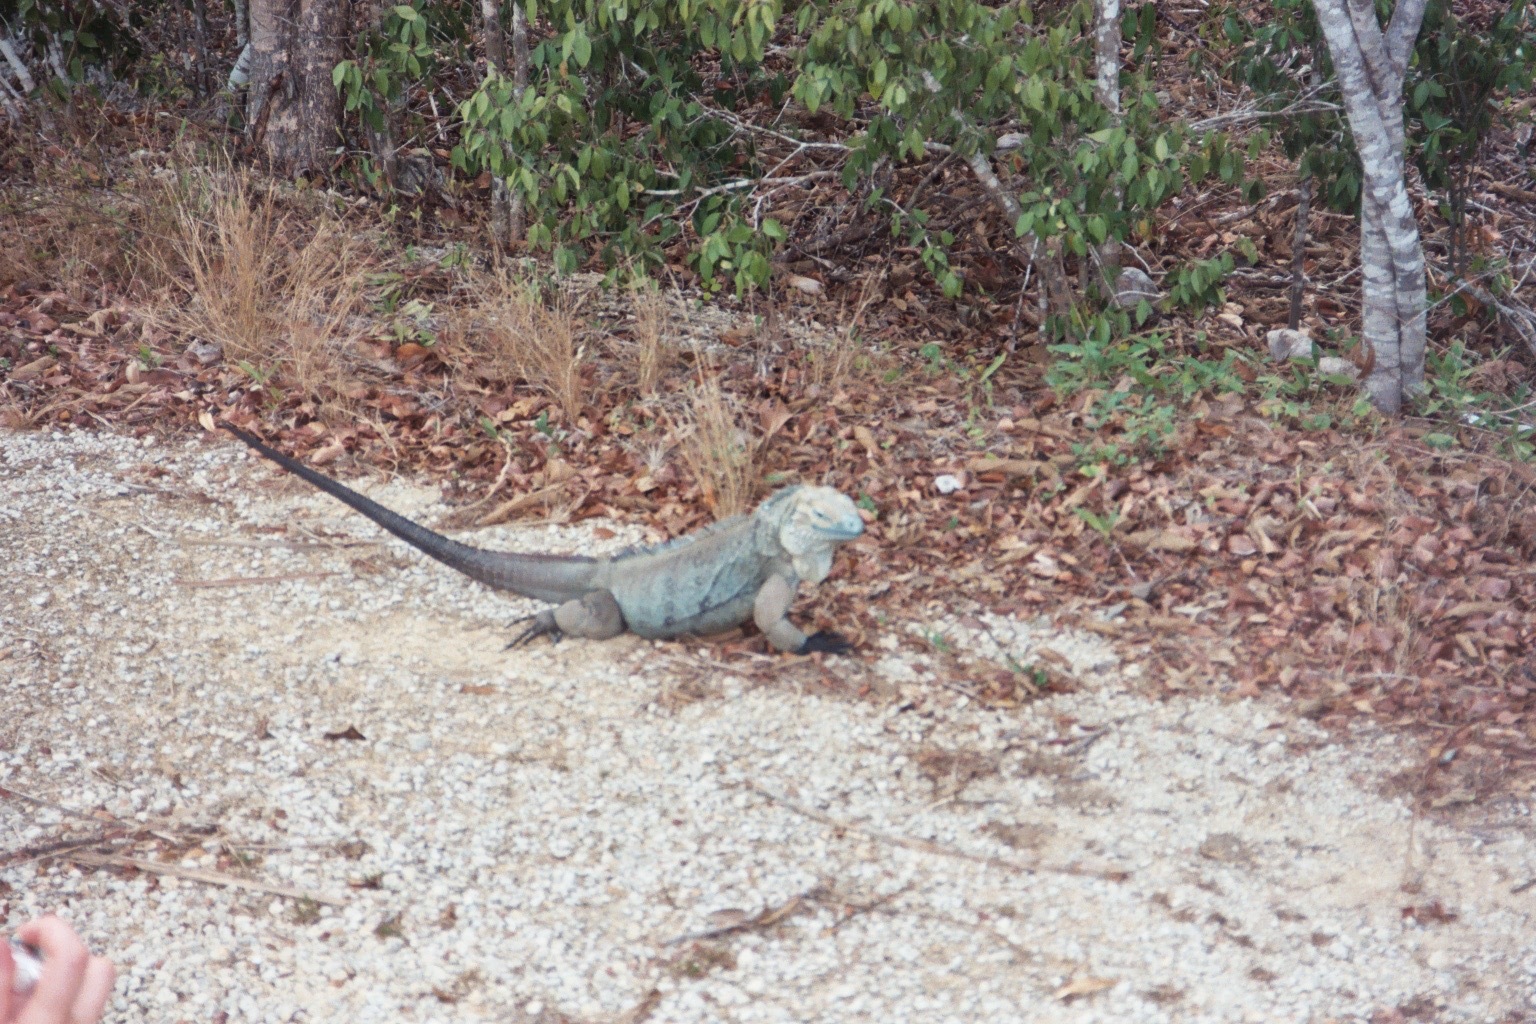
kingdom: Animalia
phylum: Chordata
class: Squamata
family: Iguanidae
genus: Cyclura
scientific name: Cyclura lewisi
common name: Grand cayman blue iguana
